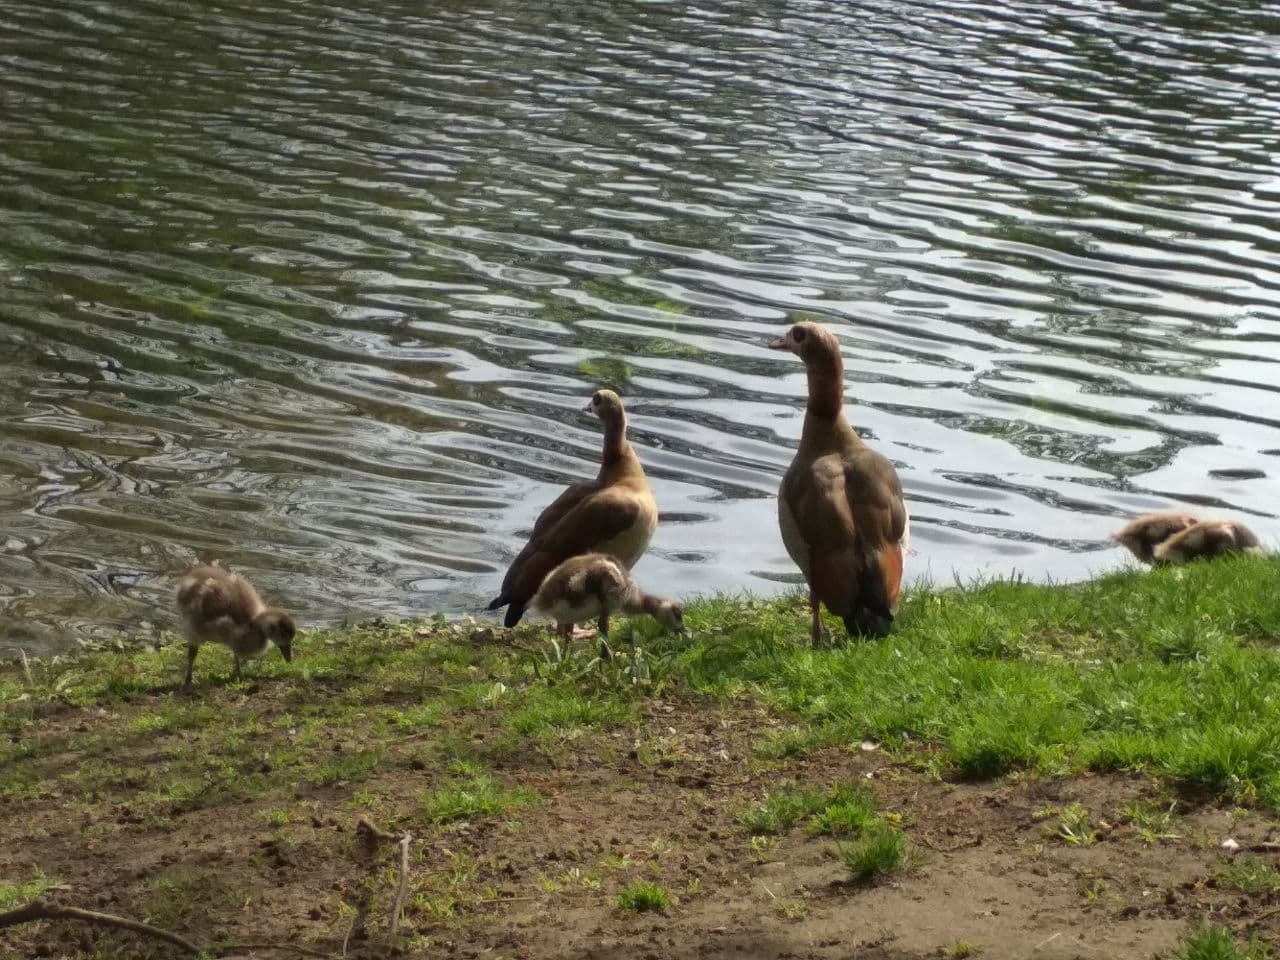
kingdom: Animalia
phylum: Chordata
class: Aves
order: Anseriformes
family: Anatidae
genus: Alopochen
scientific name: Alopochen aegyptiaca
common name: Egyptian goose
